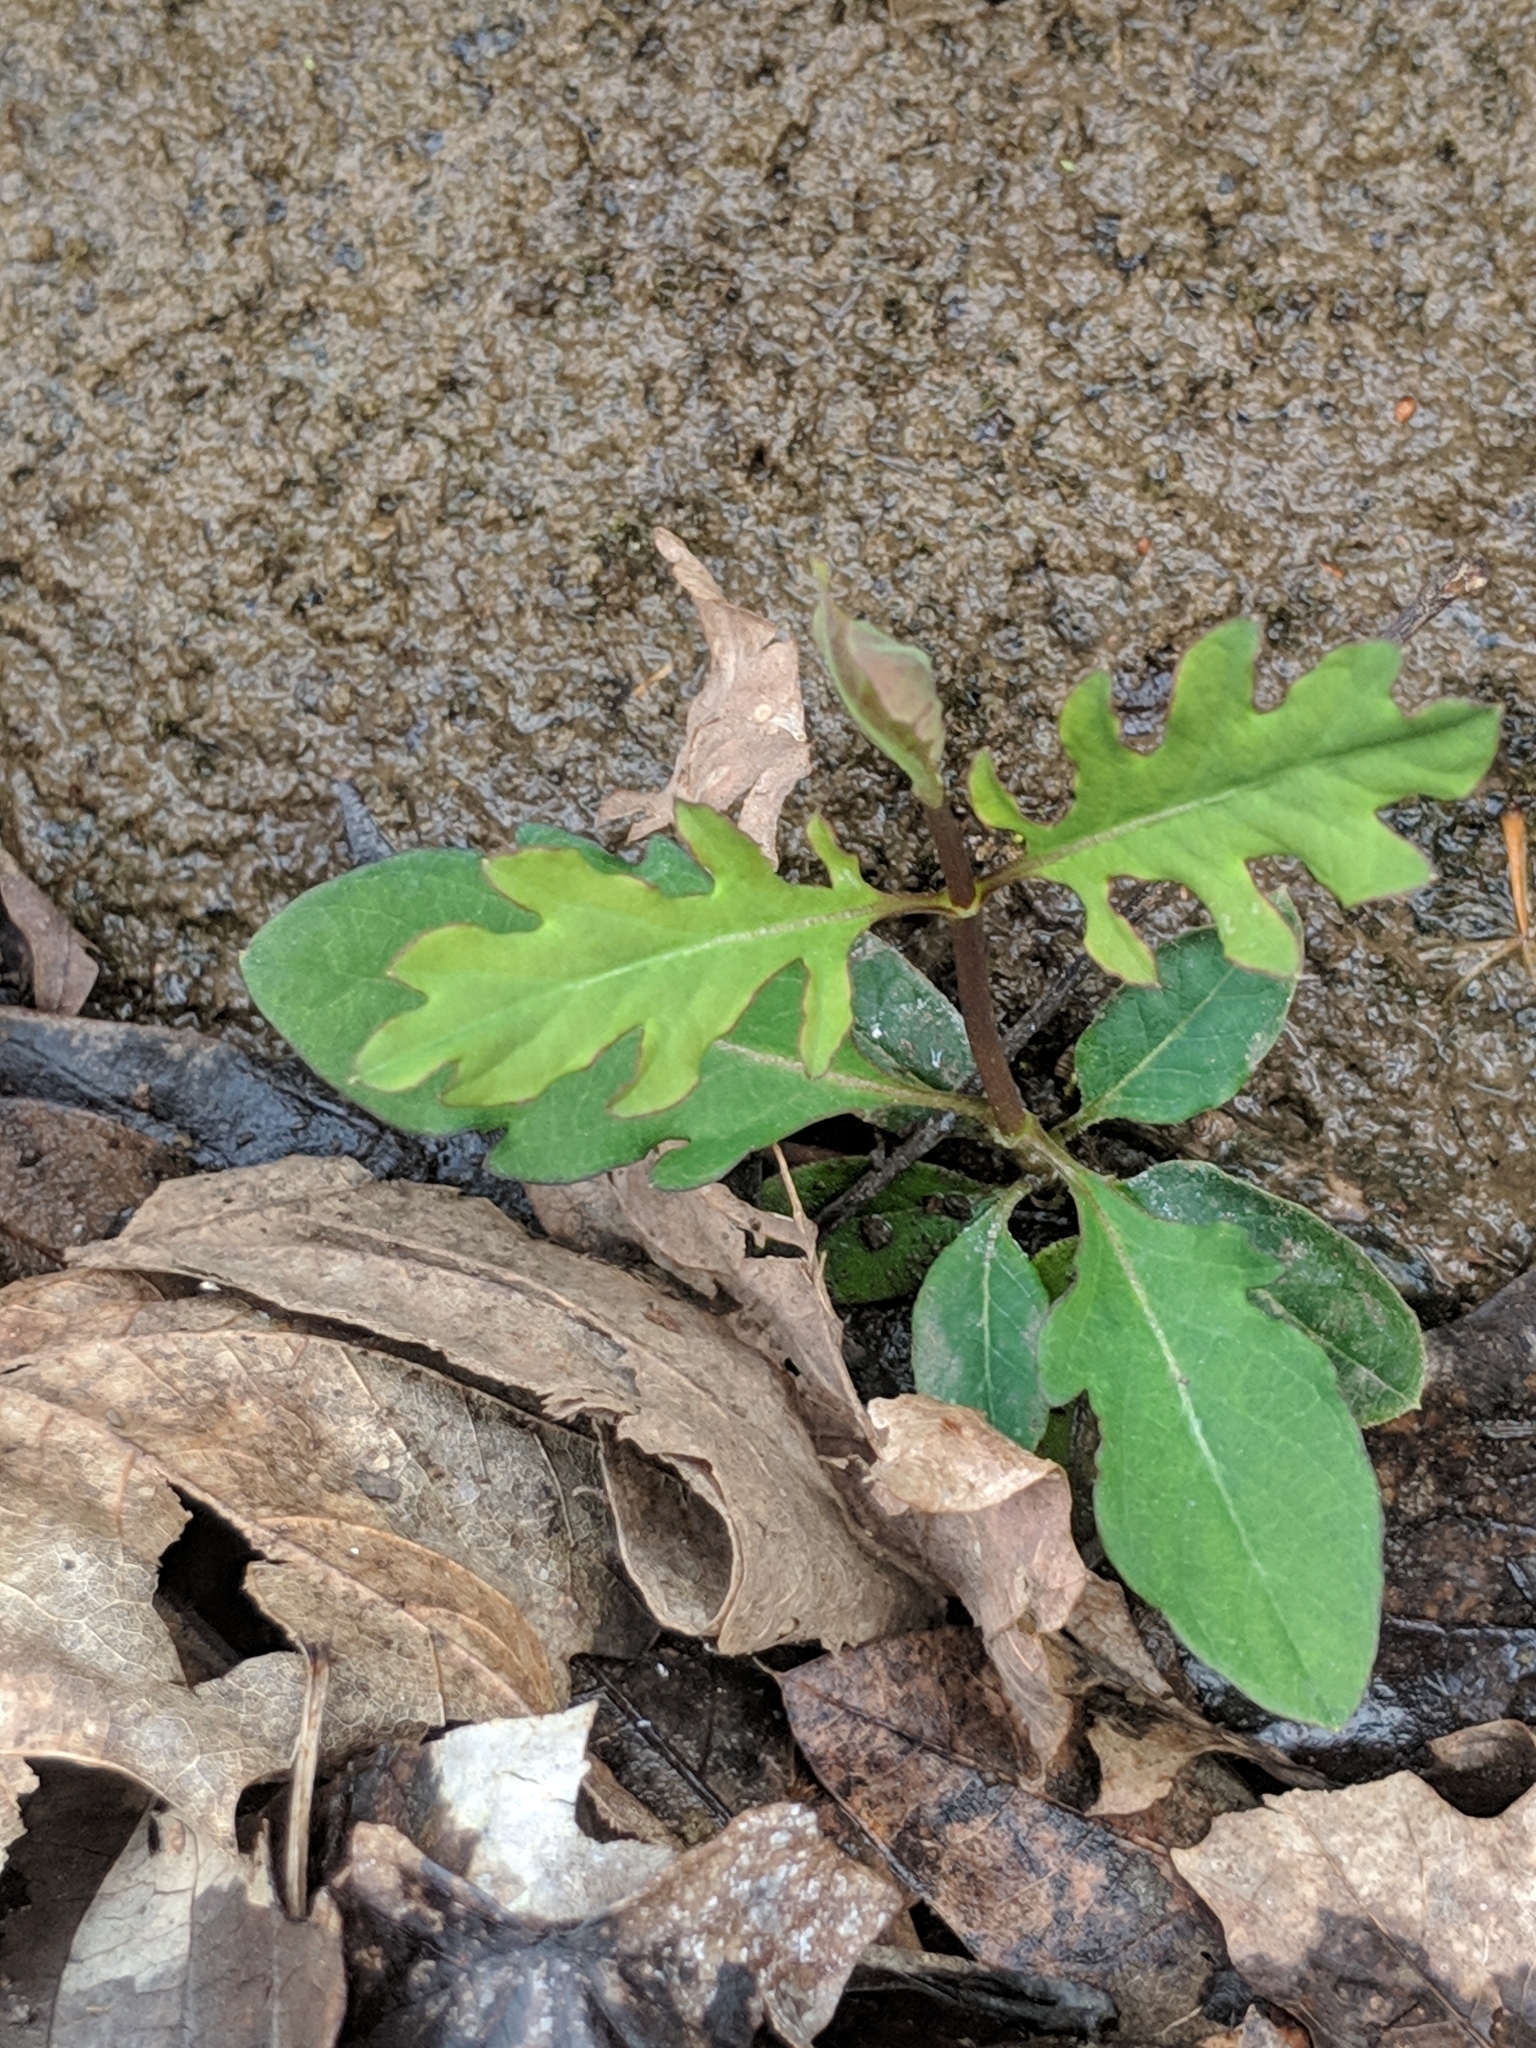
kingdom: Plantae
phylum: Tracheophyta
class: Magnoliopsida
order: Dipsacales
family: Caprifoliaceae
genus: Lonicera
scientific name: Lonicera japonica
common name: Japanese honeysuckle
